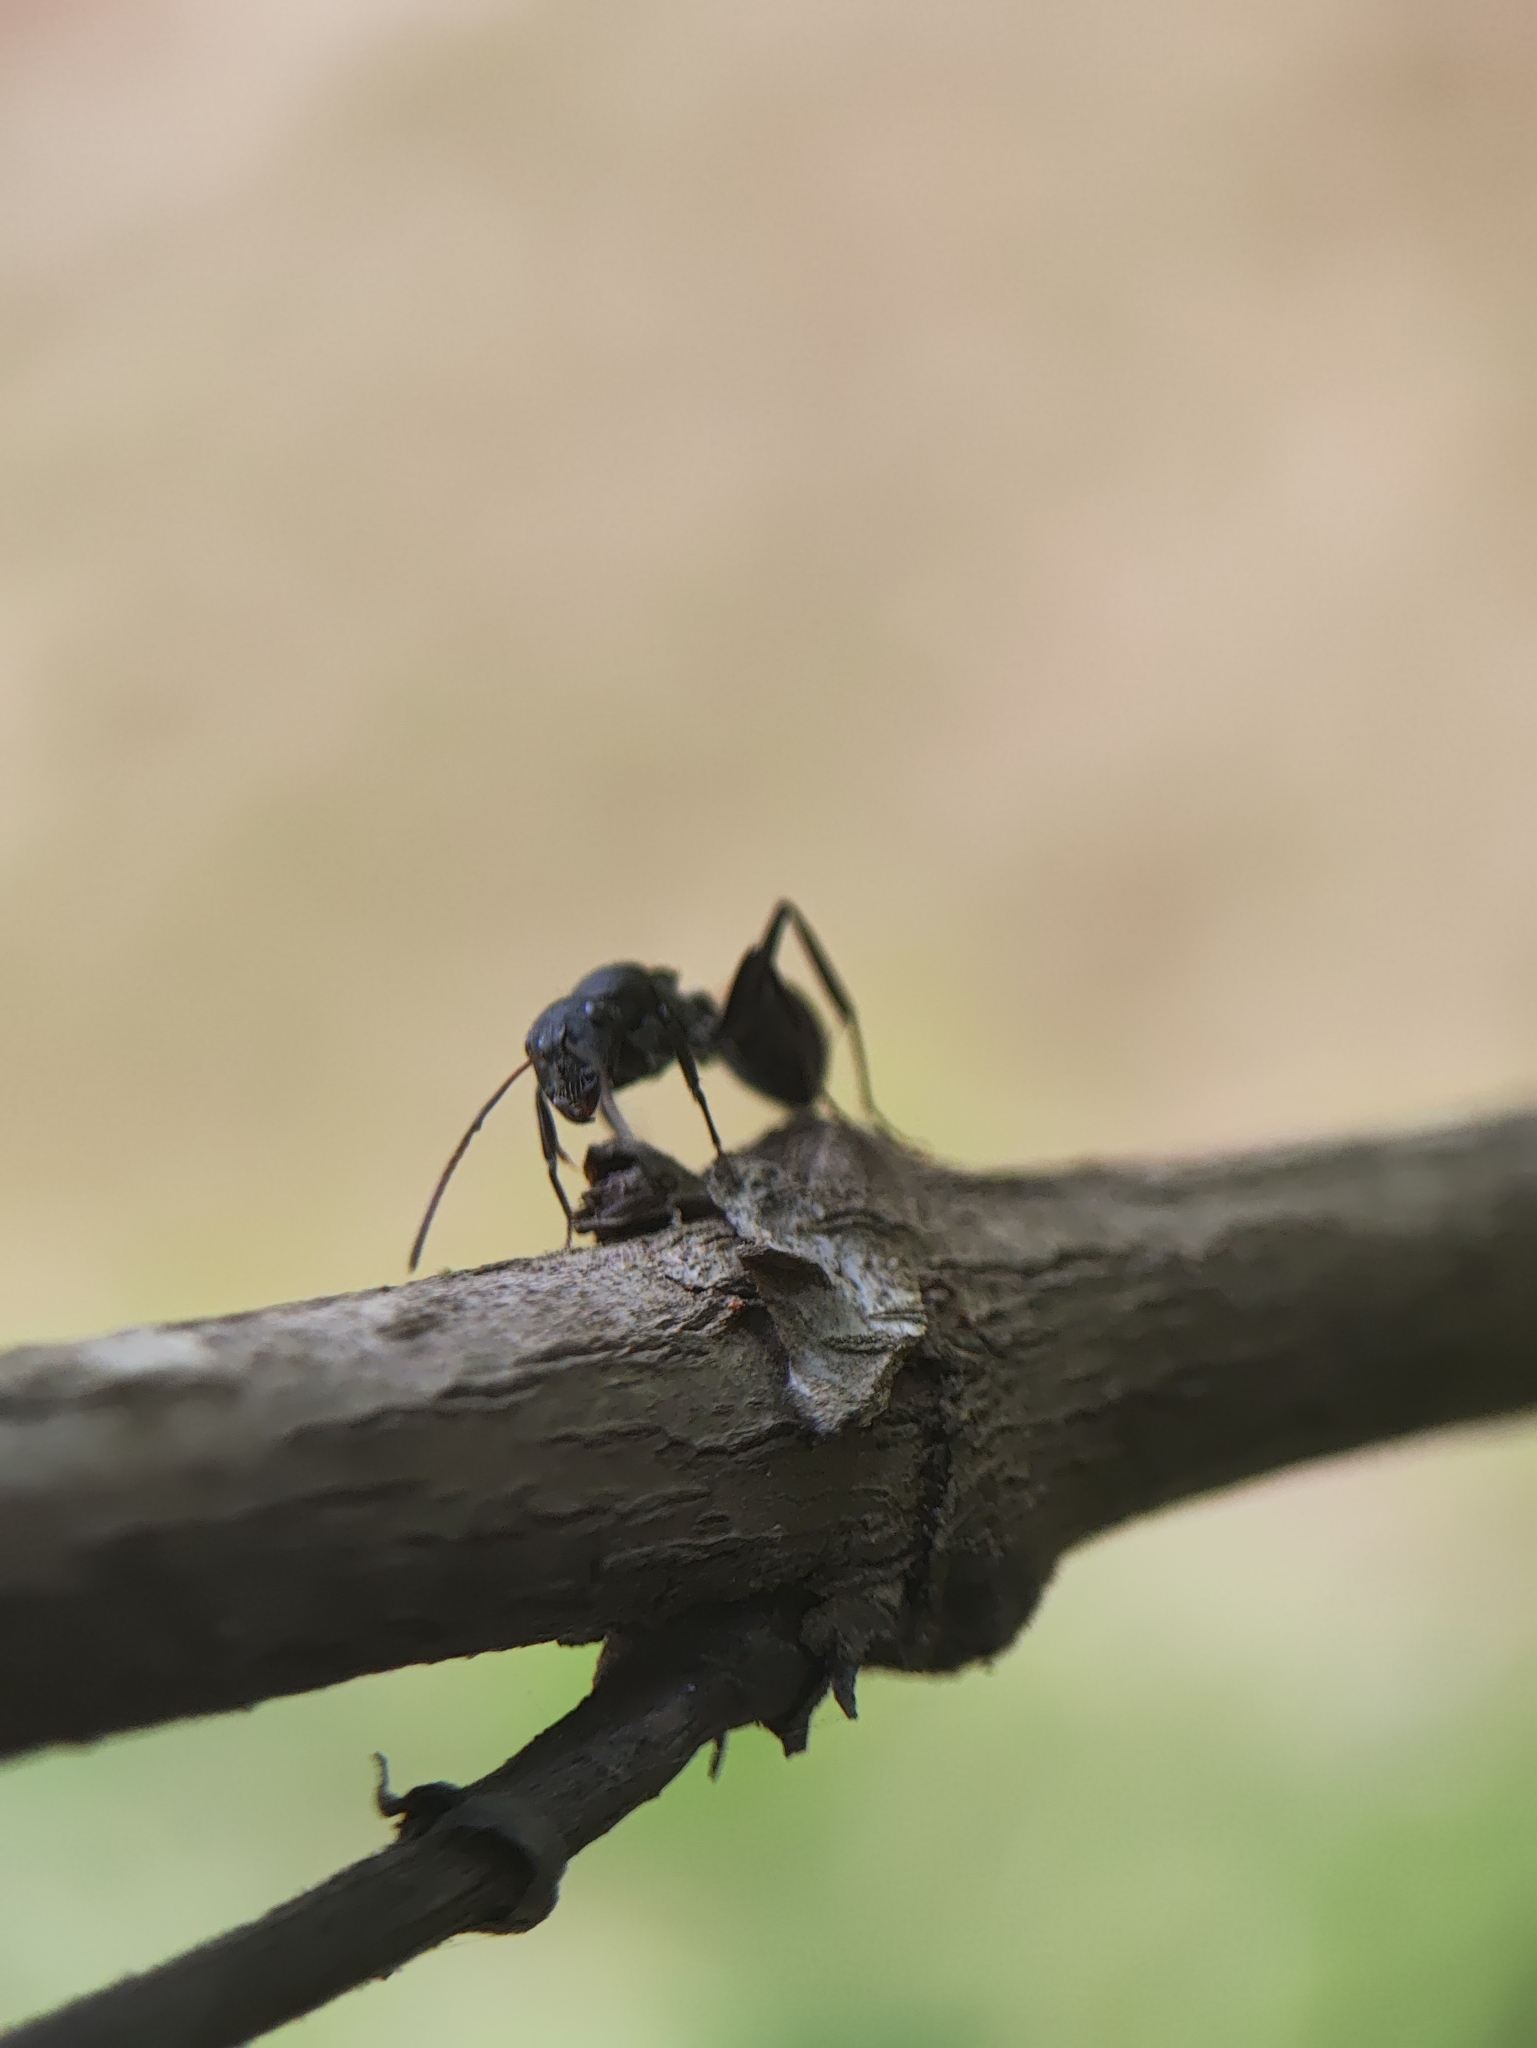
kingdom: Animalia
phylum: Arthropoda
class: Insecta
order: Hymenoptera
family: Formicidae
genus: Camponotus
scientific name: Camponotus sericeus
